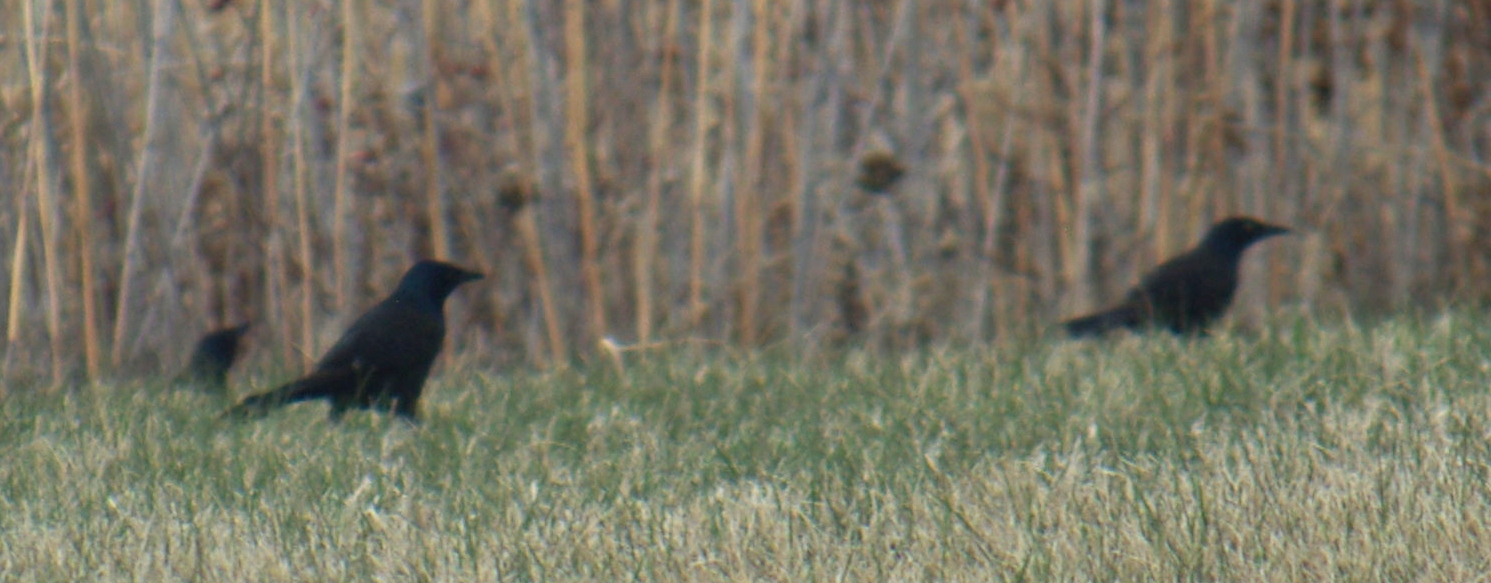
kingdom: Animalia
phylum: Chordata
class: Aves
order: Passeriformes
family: Icteridae
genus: Quiscalus
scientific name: Quiscalus quiscula
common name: Common grackle
